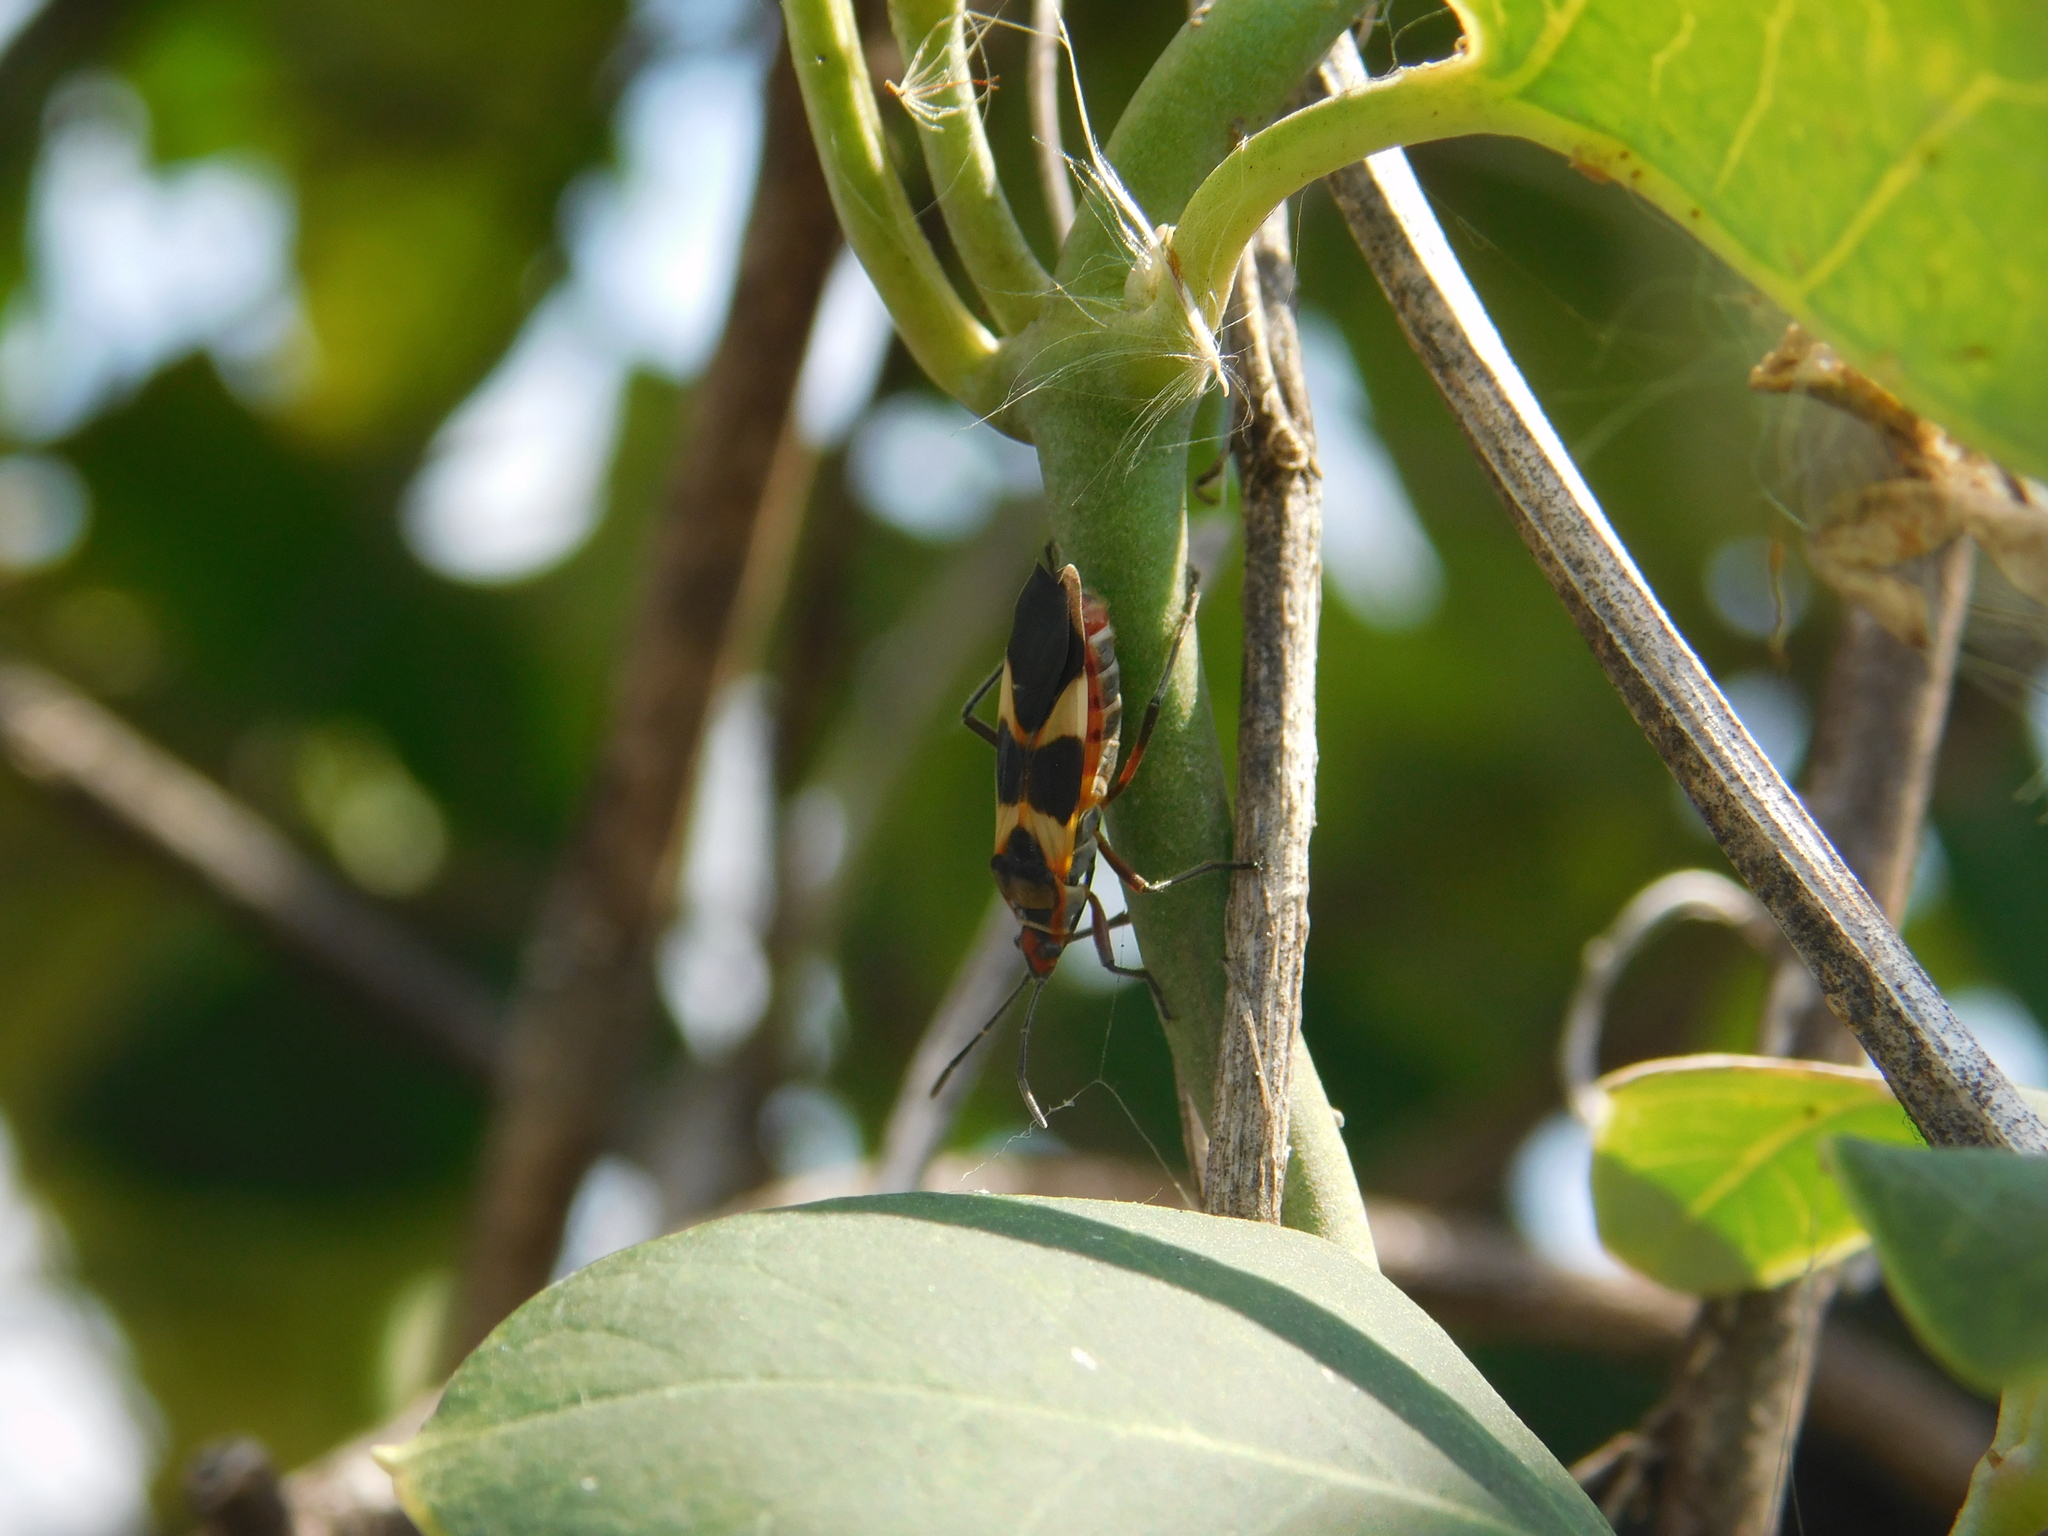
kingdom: Animalia
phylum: Arthropoda
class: Insecta
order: Hemiptera
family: Lygaeidae
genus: Oncopeltus
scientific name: Oncopeltus unifasciatellus
